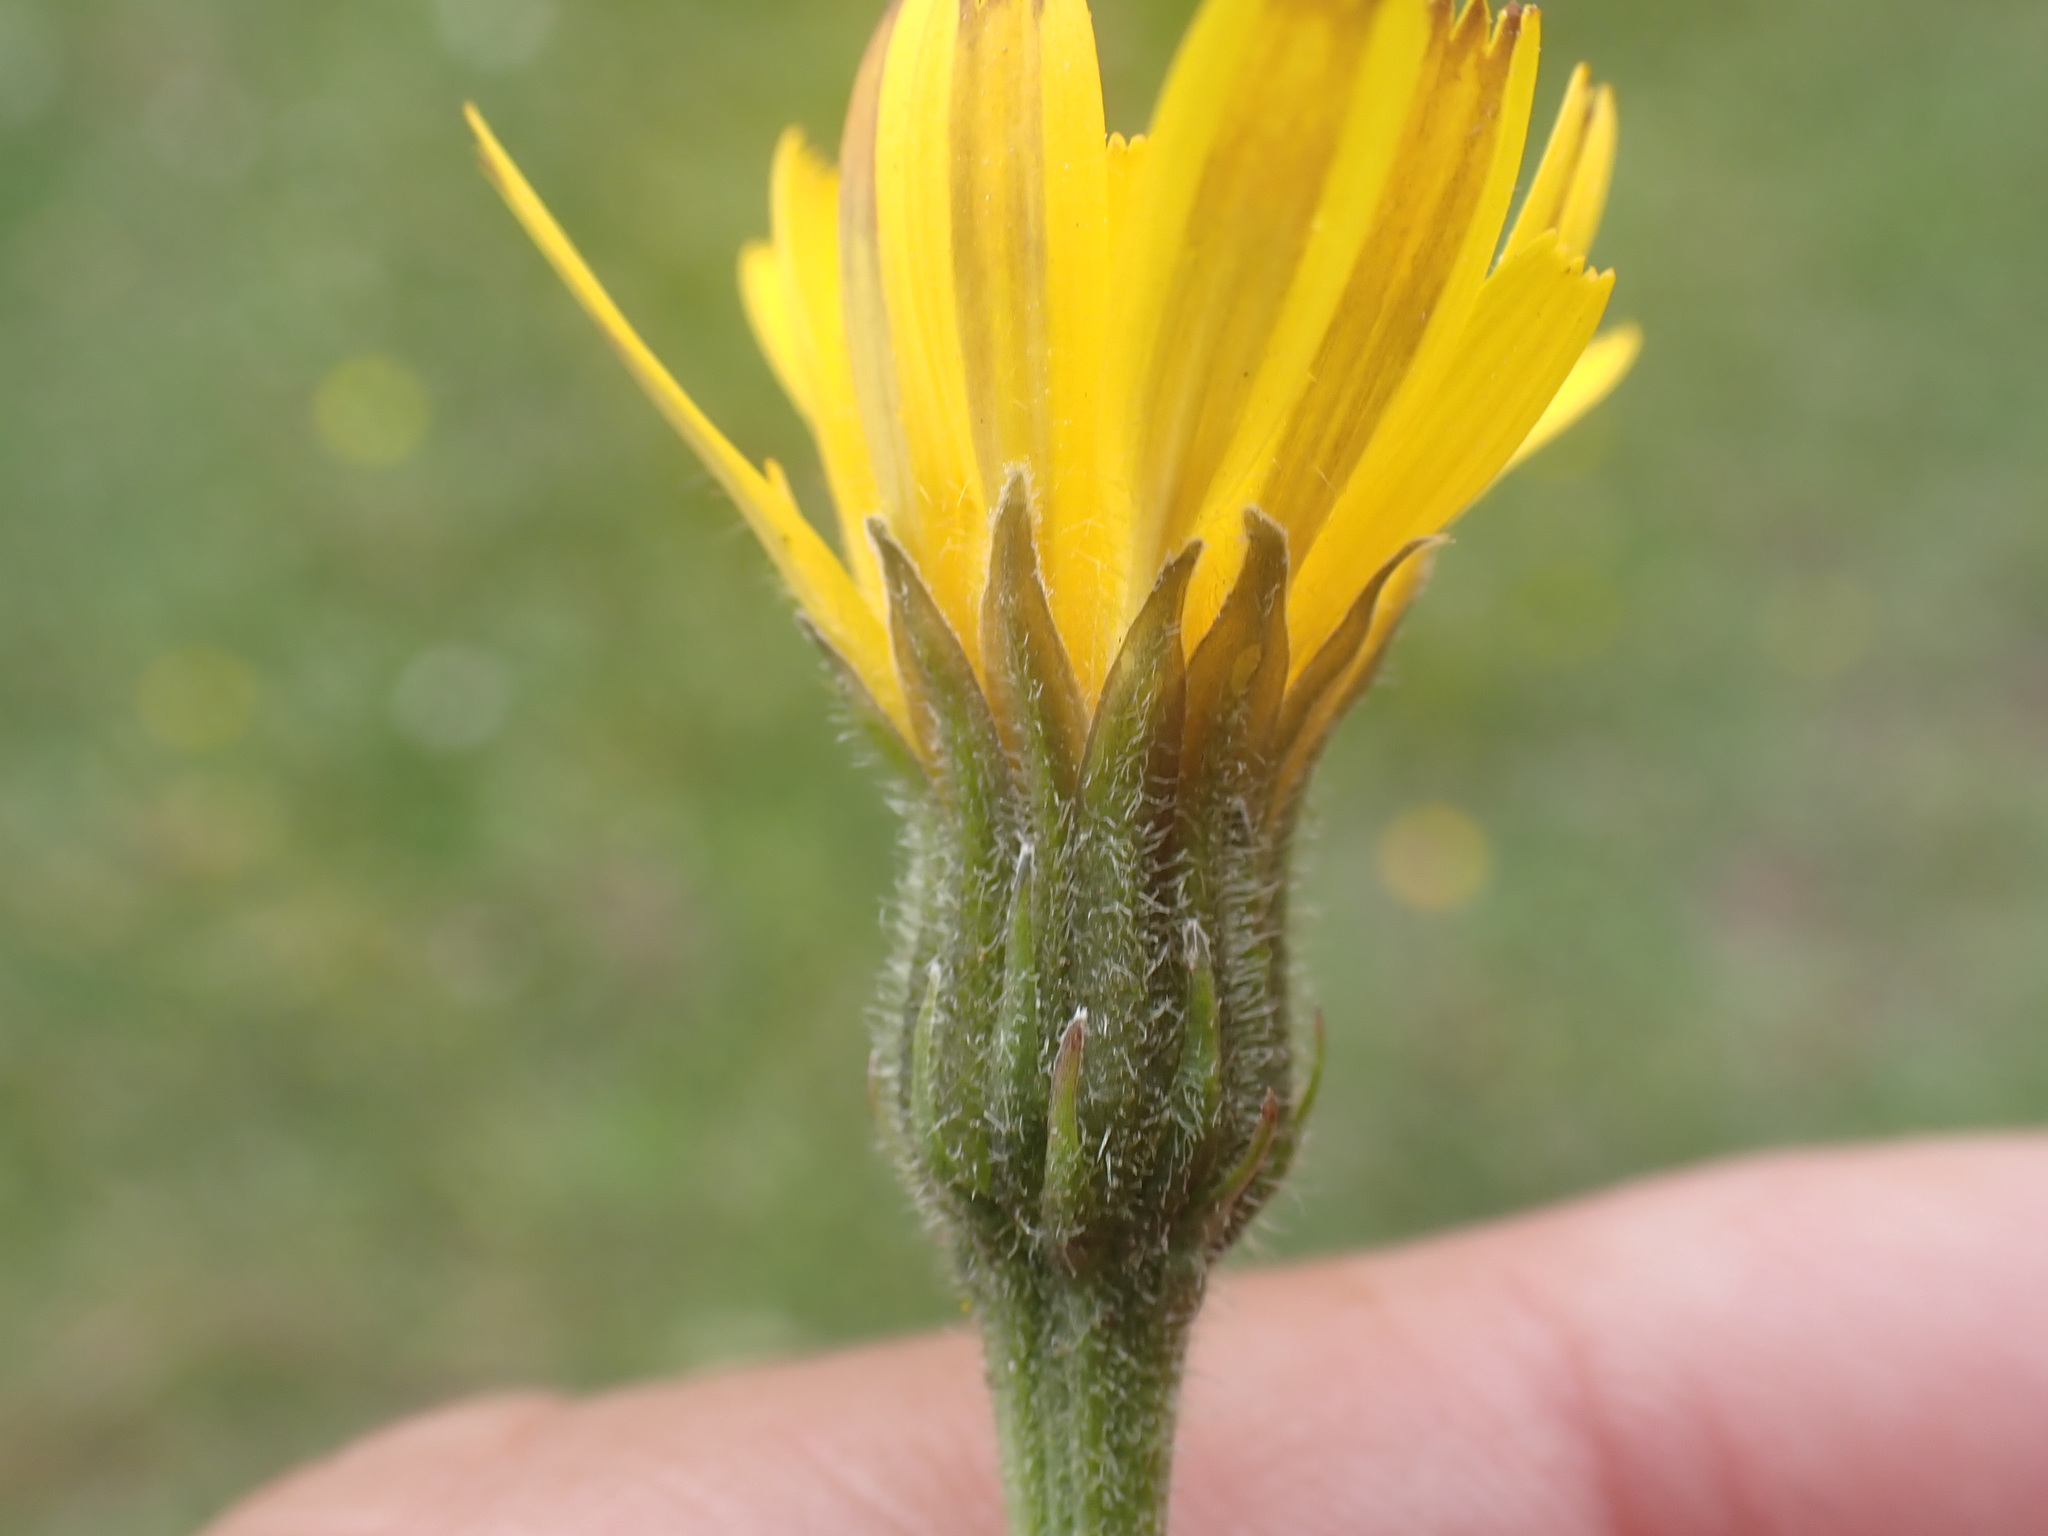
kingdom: Plantae
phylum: Tracheophyta
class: Magnoliopsida
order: Asterales
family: Asteraceae
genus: Leontodon
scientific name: Leontodon hispidus
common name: Rough hawkbit
